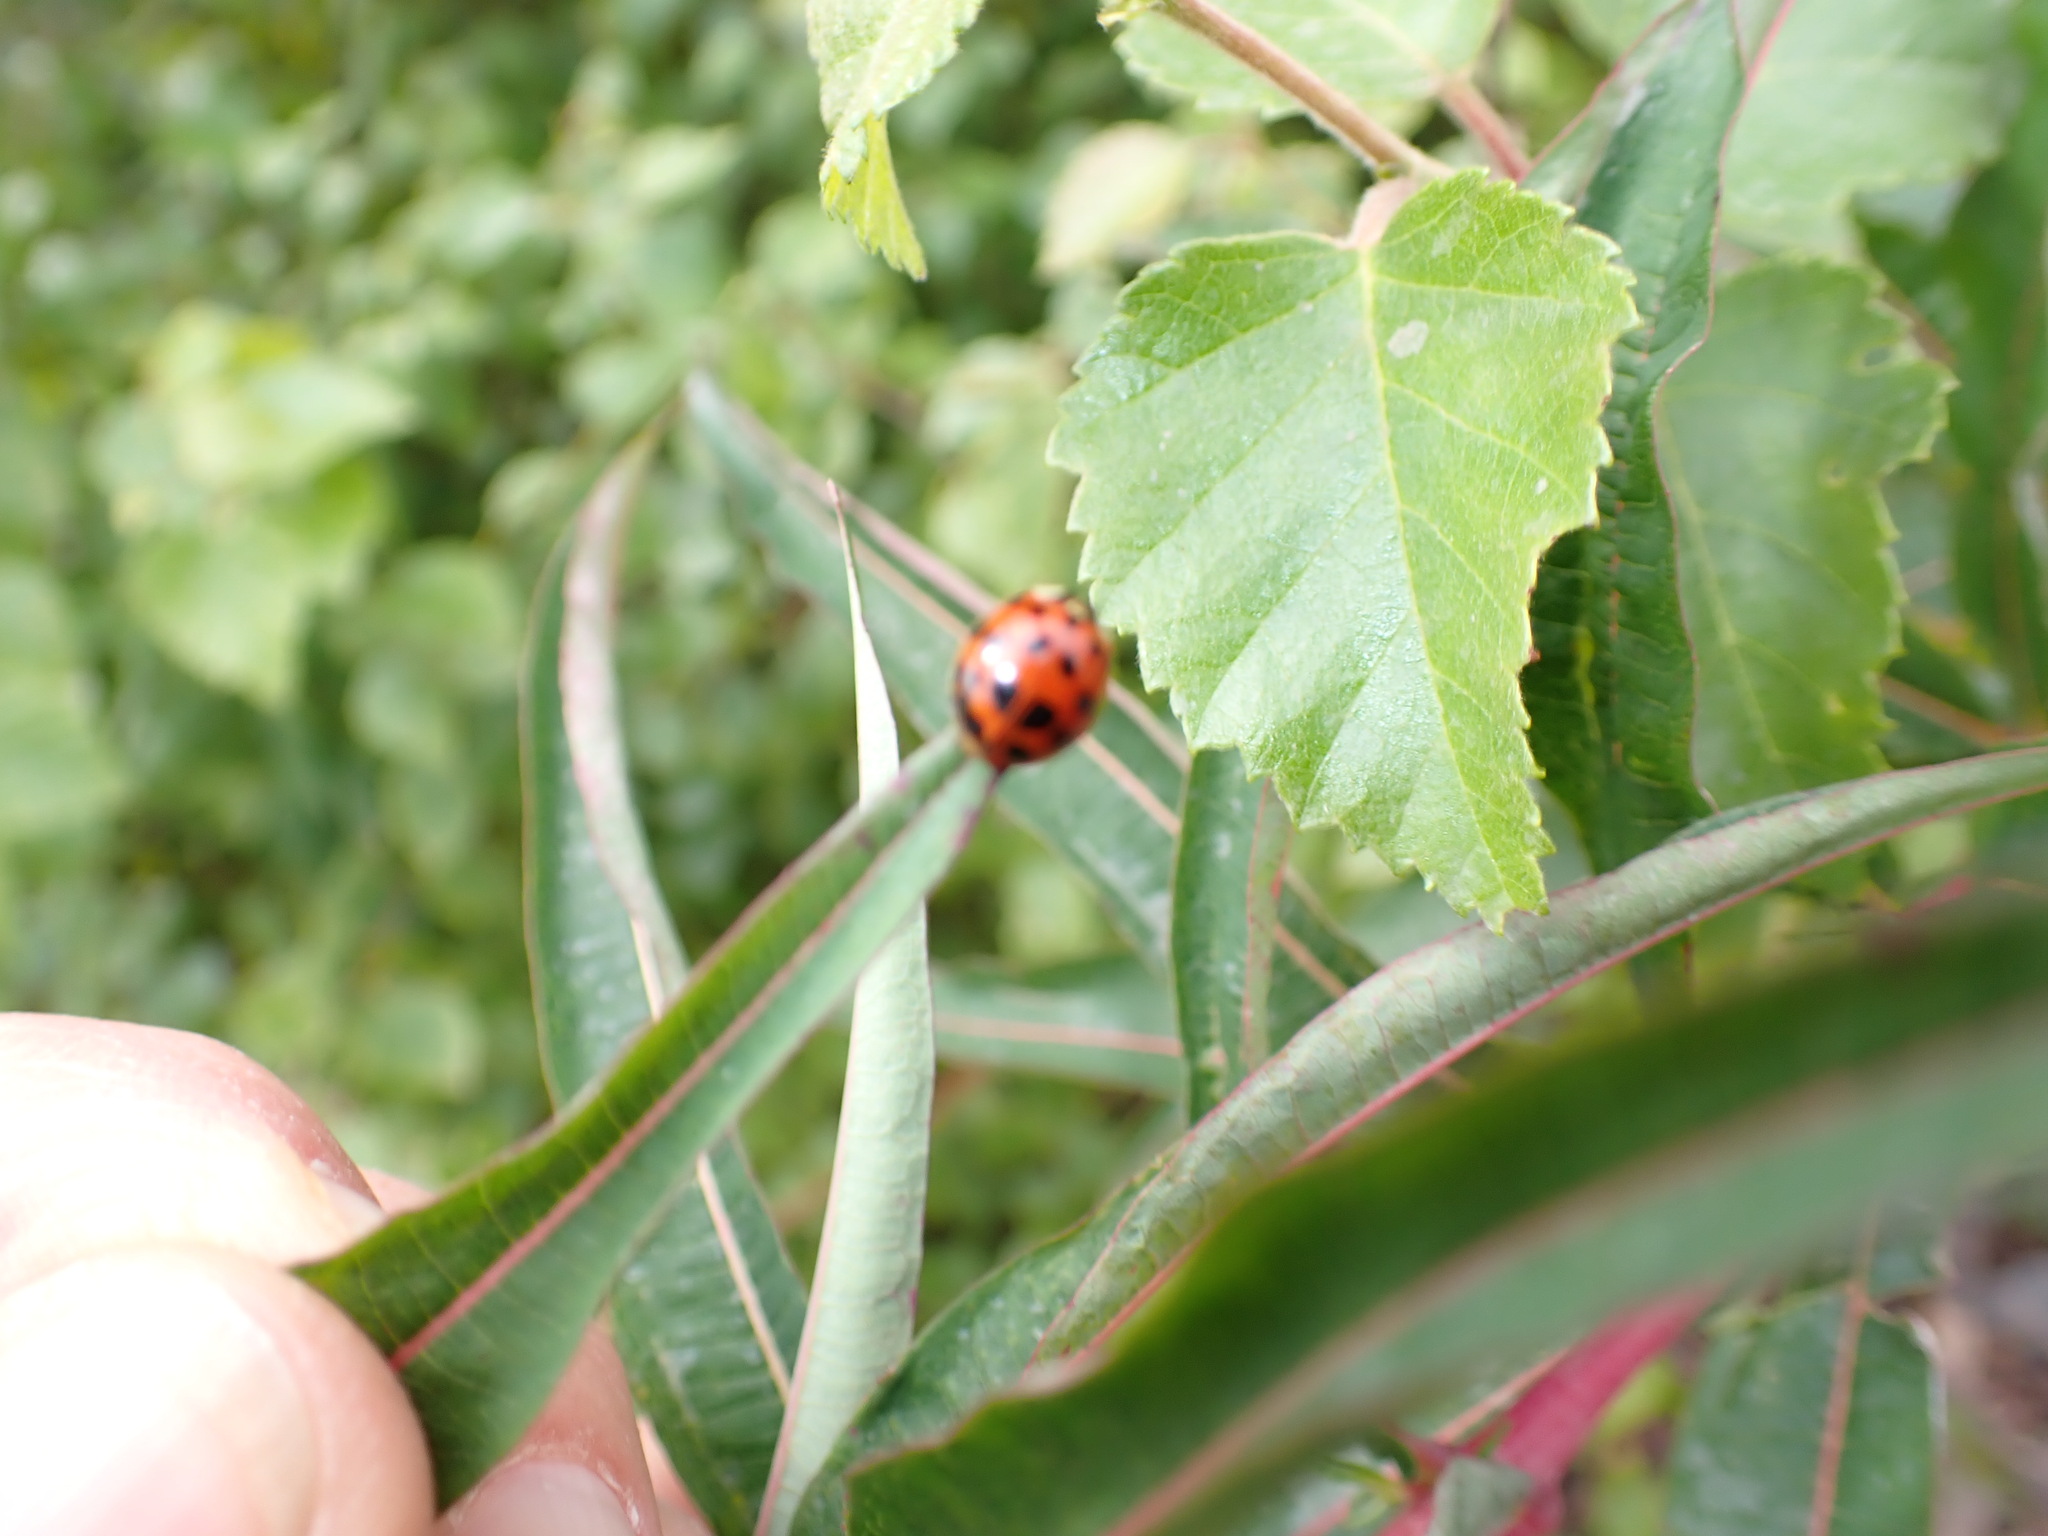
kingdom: Animalia
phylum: Arthropoda
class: Insecta
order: Coleoptera
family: Coccinellidae
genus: Harmonia
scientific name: Harmonia axyridis
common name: Harlequin ladybird
